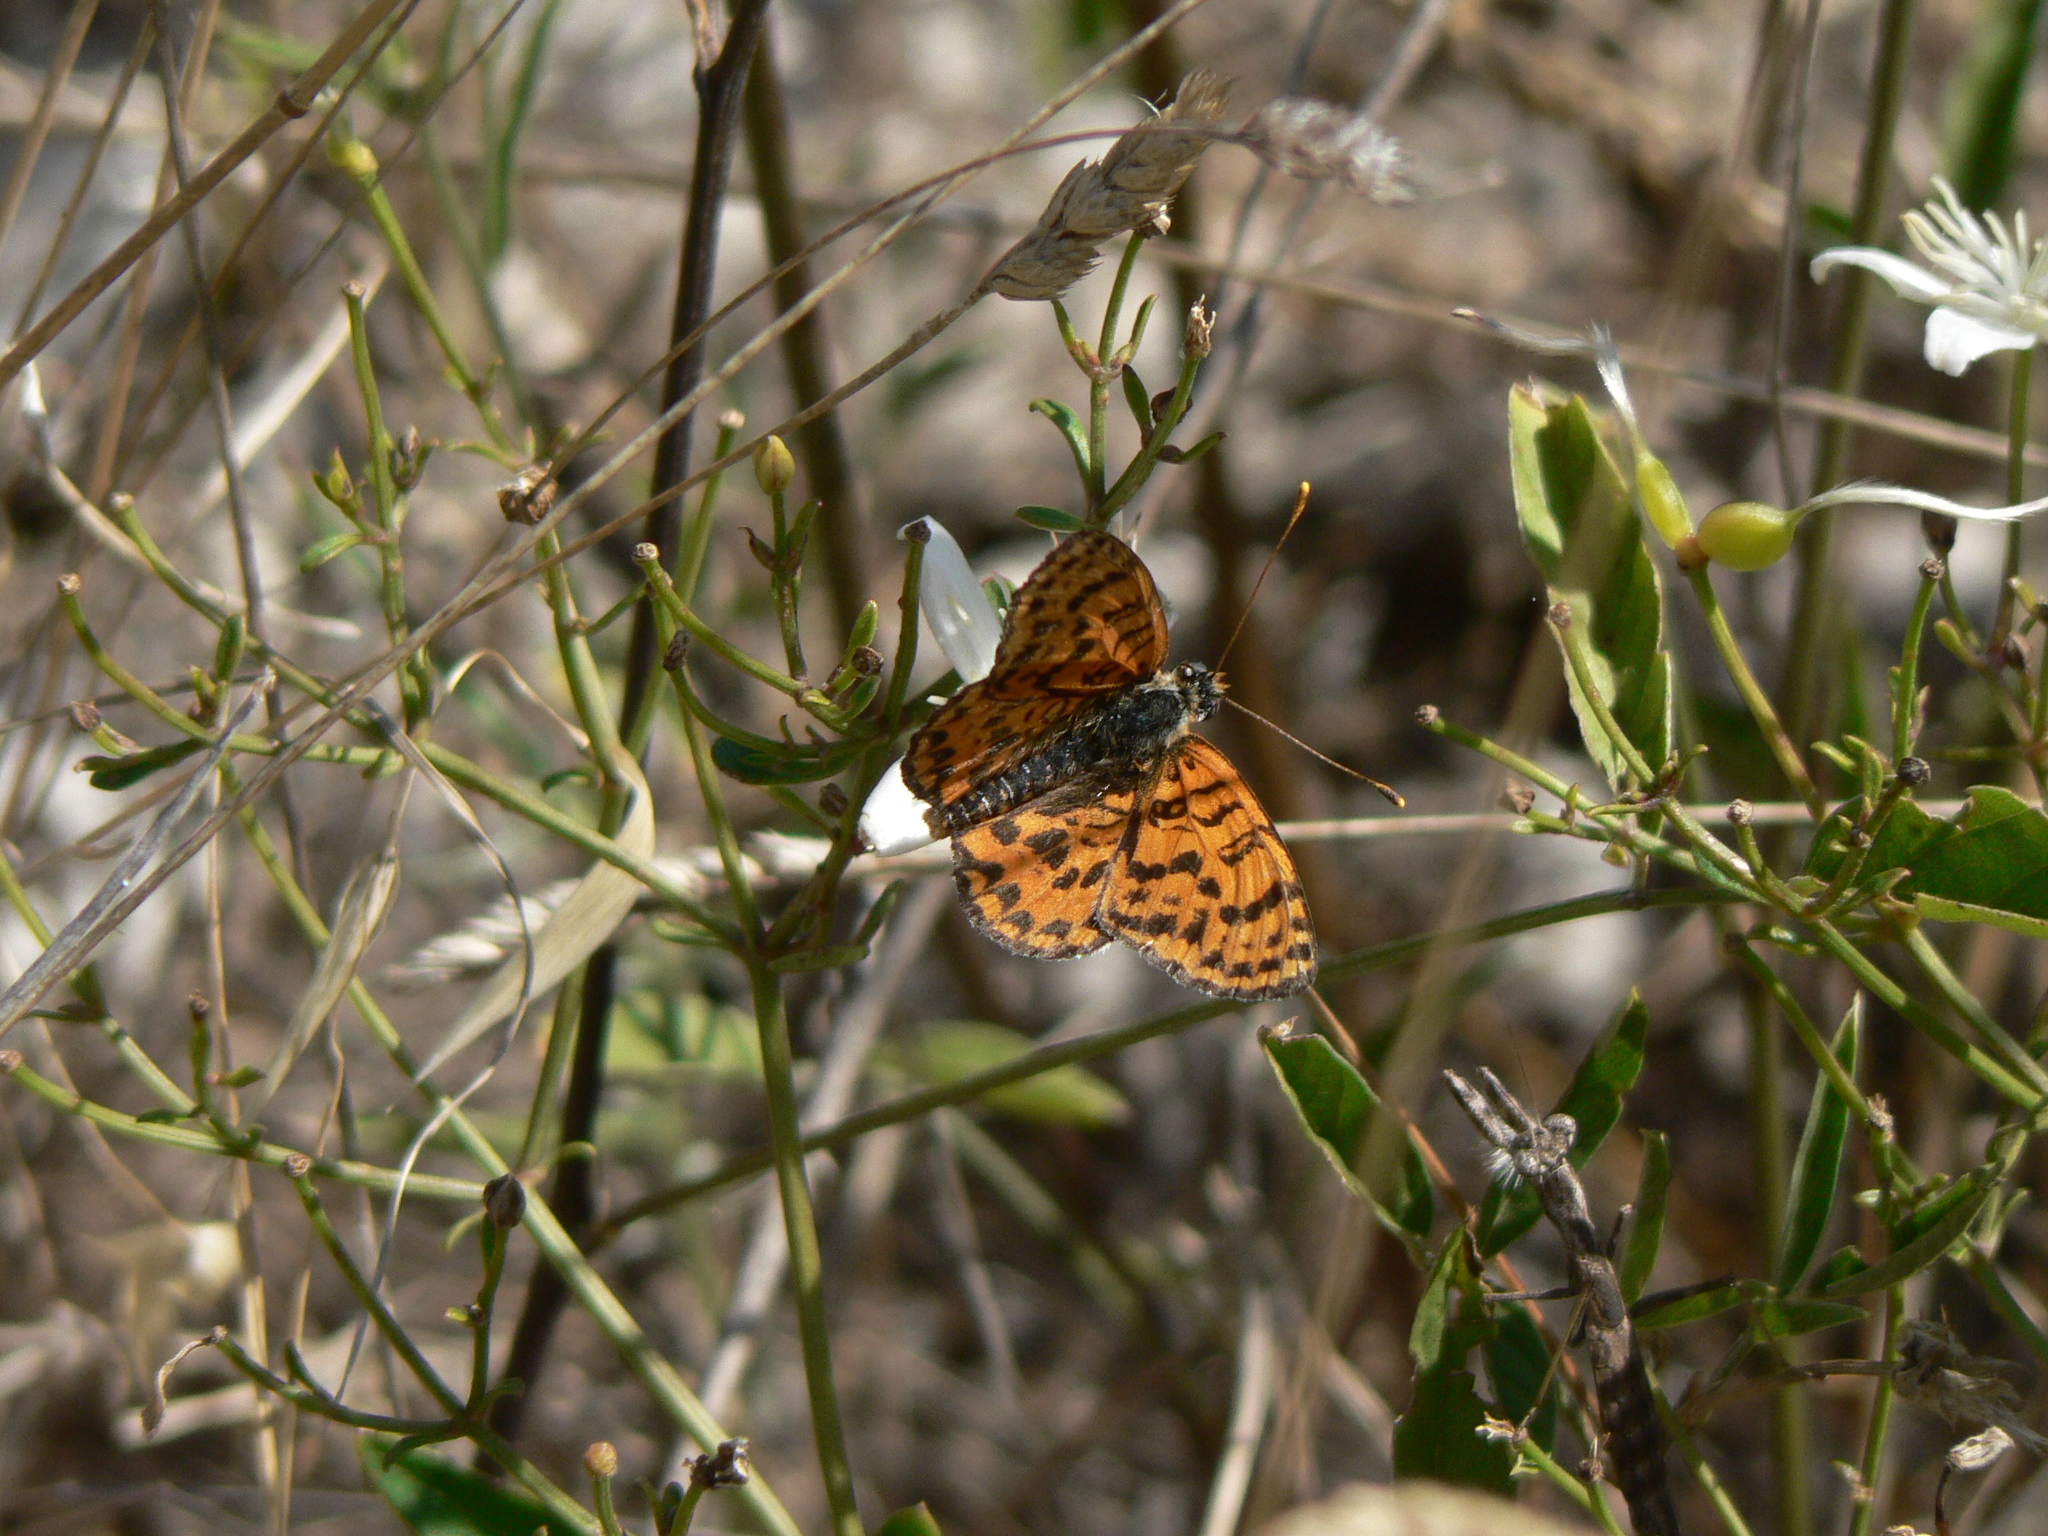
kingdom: Animalia
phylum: Arthropoda
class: Insecta
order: Lepidoptera
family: Nymphalidae
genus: Melitaea
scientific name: Melitaea didyma
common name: Spotted fritillary
